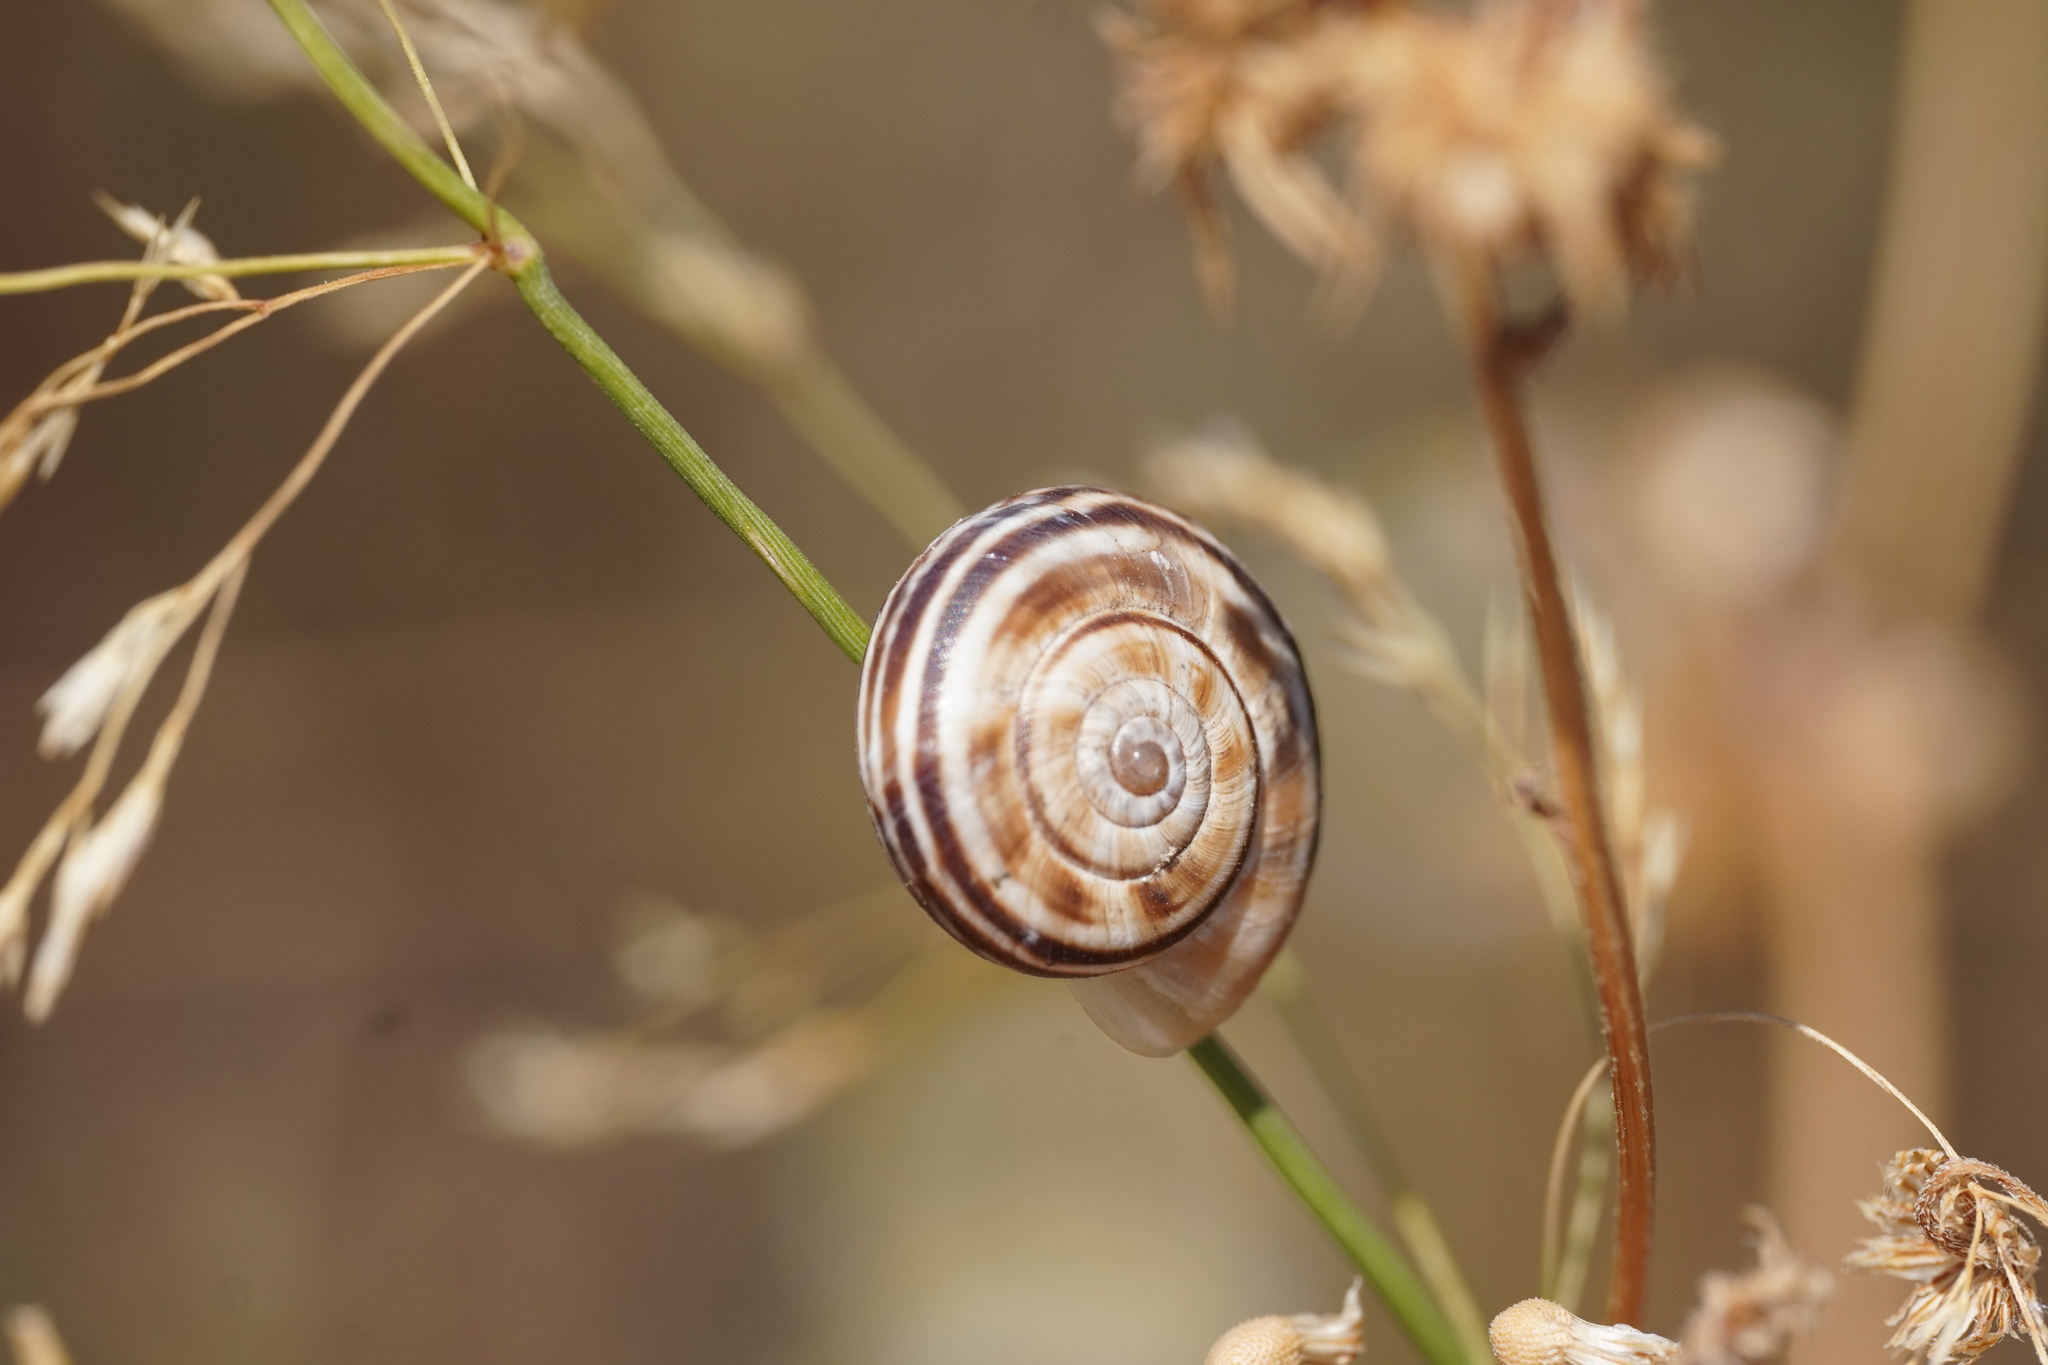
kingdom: Animalia
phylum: Mollusca
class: Gastropoda
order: Stylommatophora
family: Geomitridae
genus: Xerolenta
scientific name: Xerolenta obvia
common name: White heath snail
